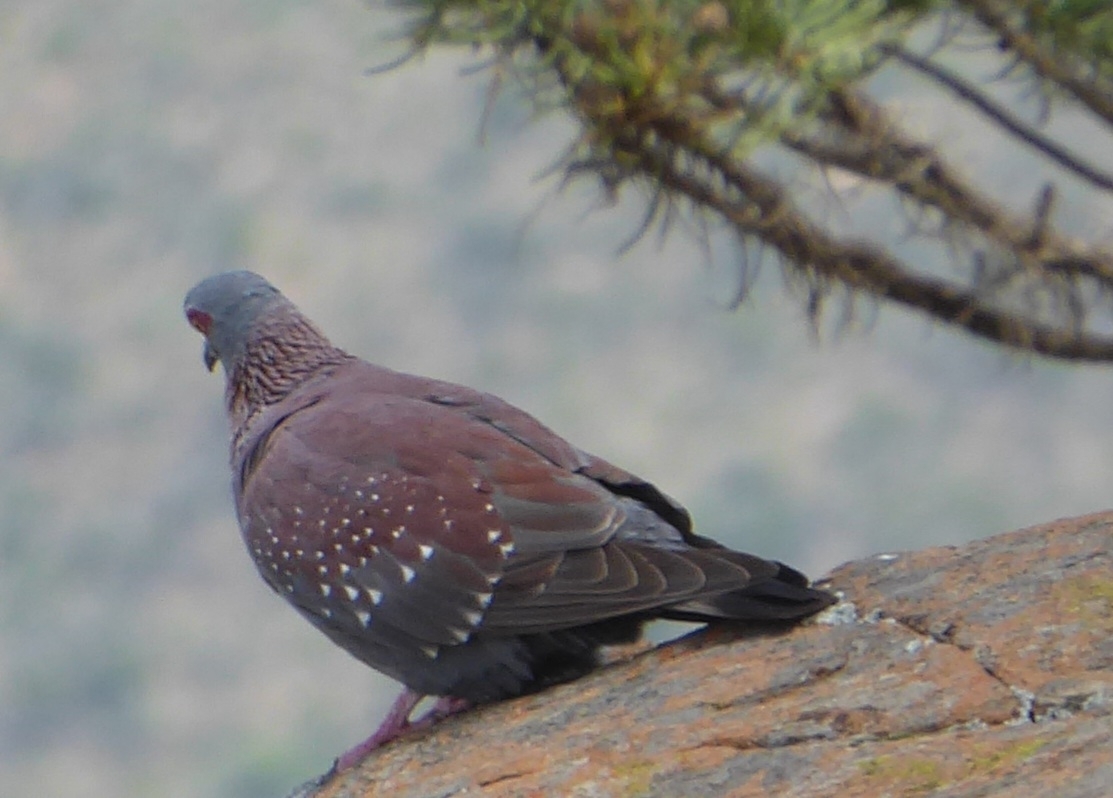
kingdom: Animalia
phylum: Chordata
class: Aves
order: Columbiformes
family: Columbidae
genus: Columba
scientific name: Columba guinea
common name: Speckled pigeon
